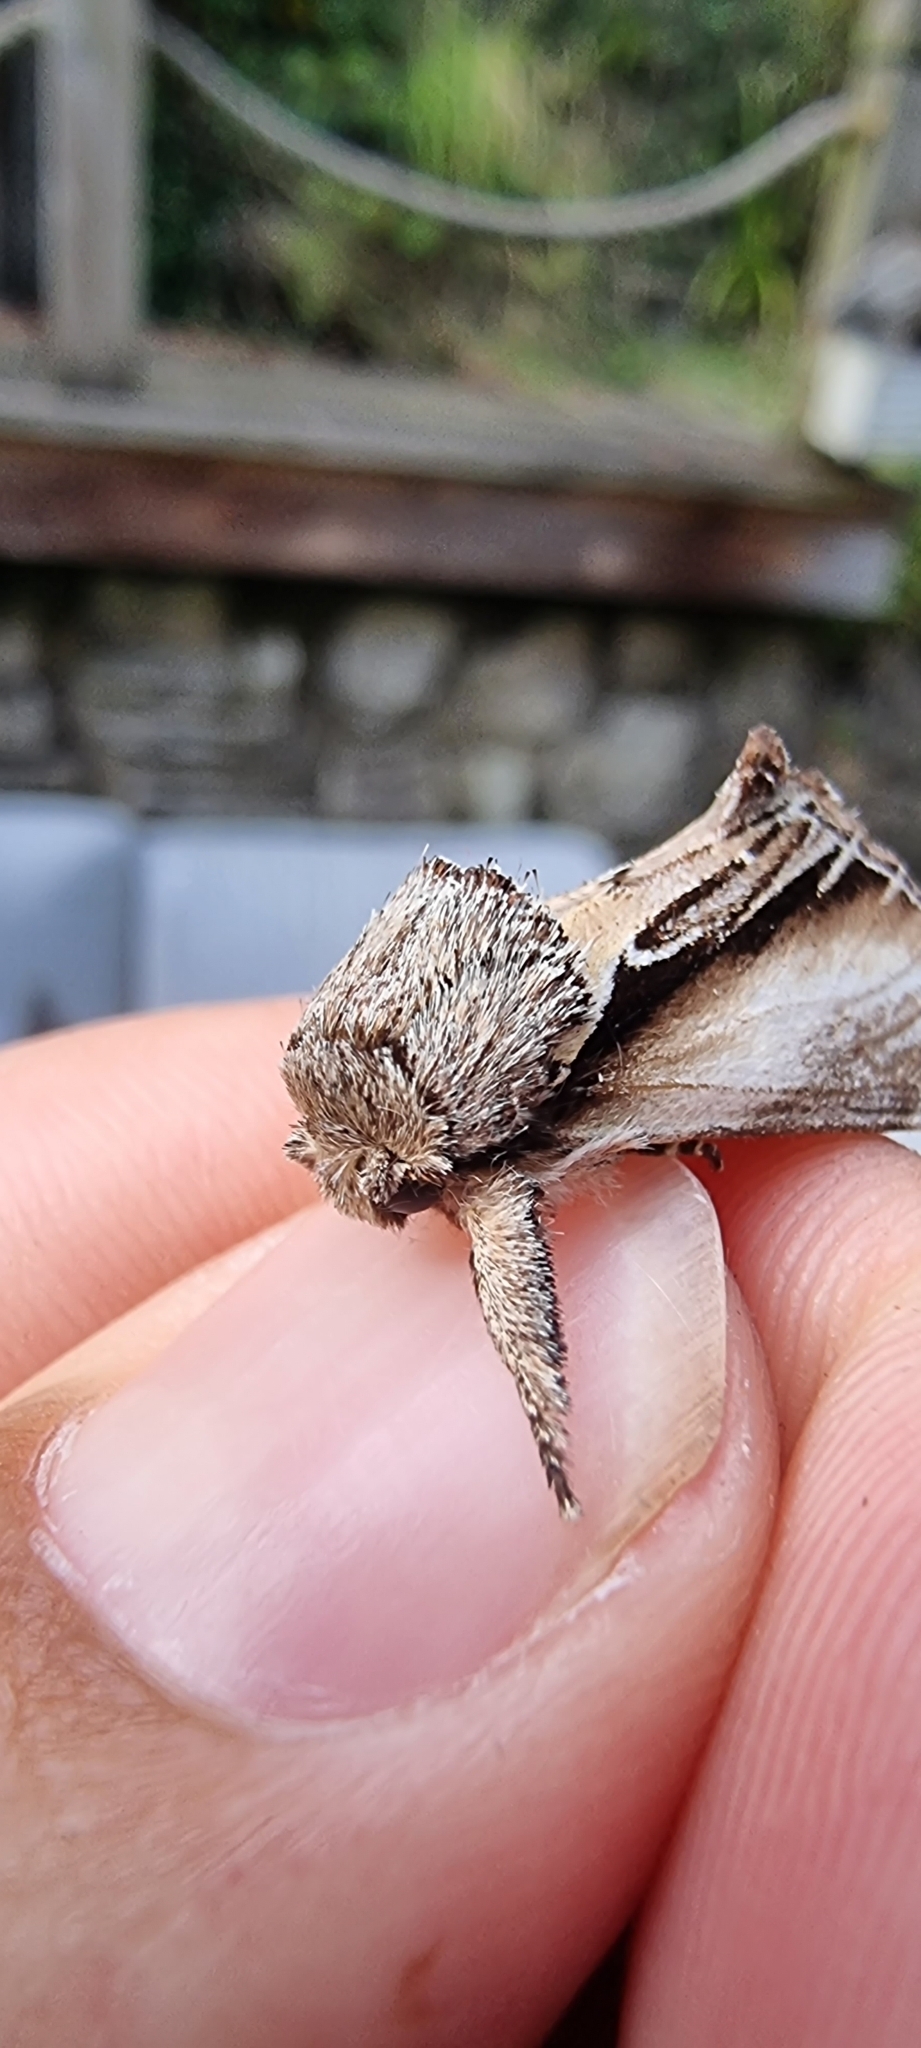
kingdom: Animalia
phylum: Arthropoda
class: Insecta
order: Lepidoptera
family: Notodontidae
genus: Pheosia
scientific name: Pheosia tremula
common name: Swallow prominent
